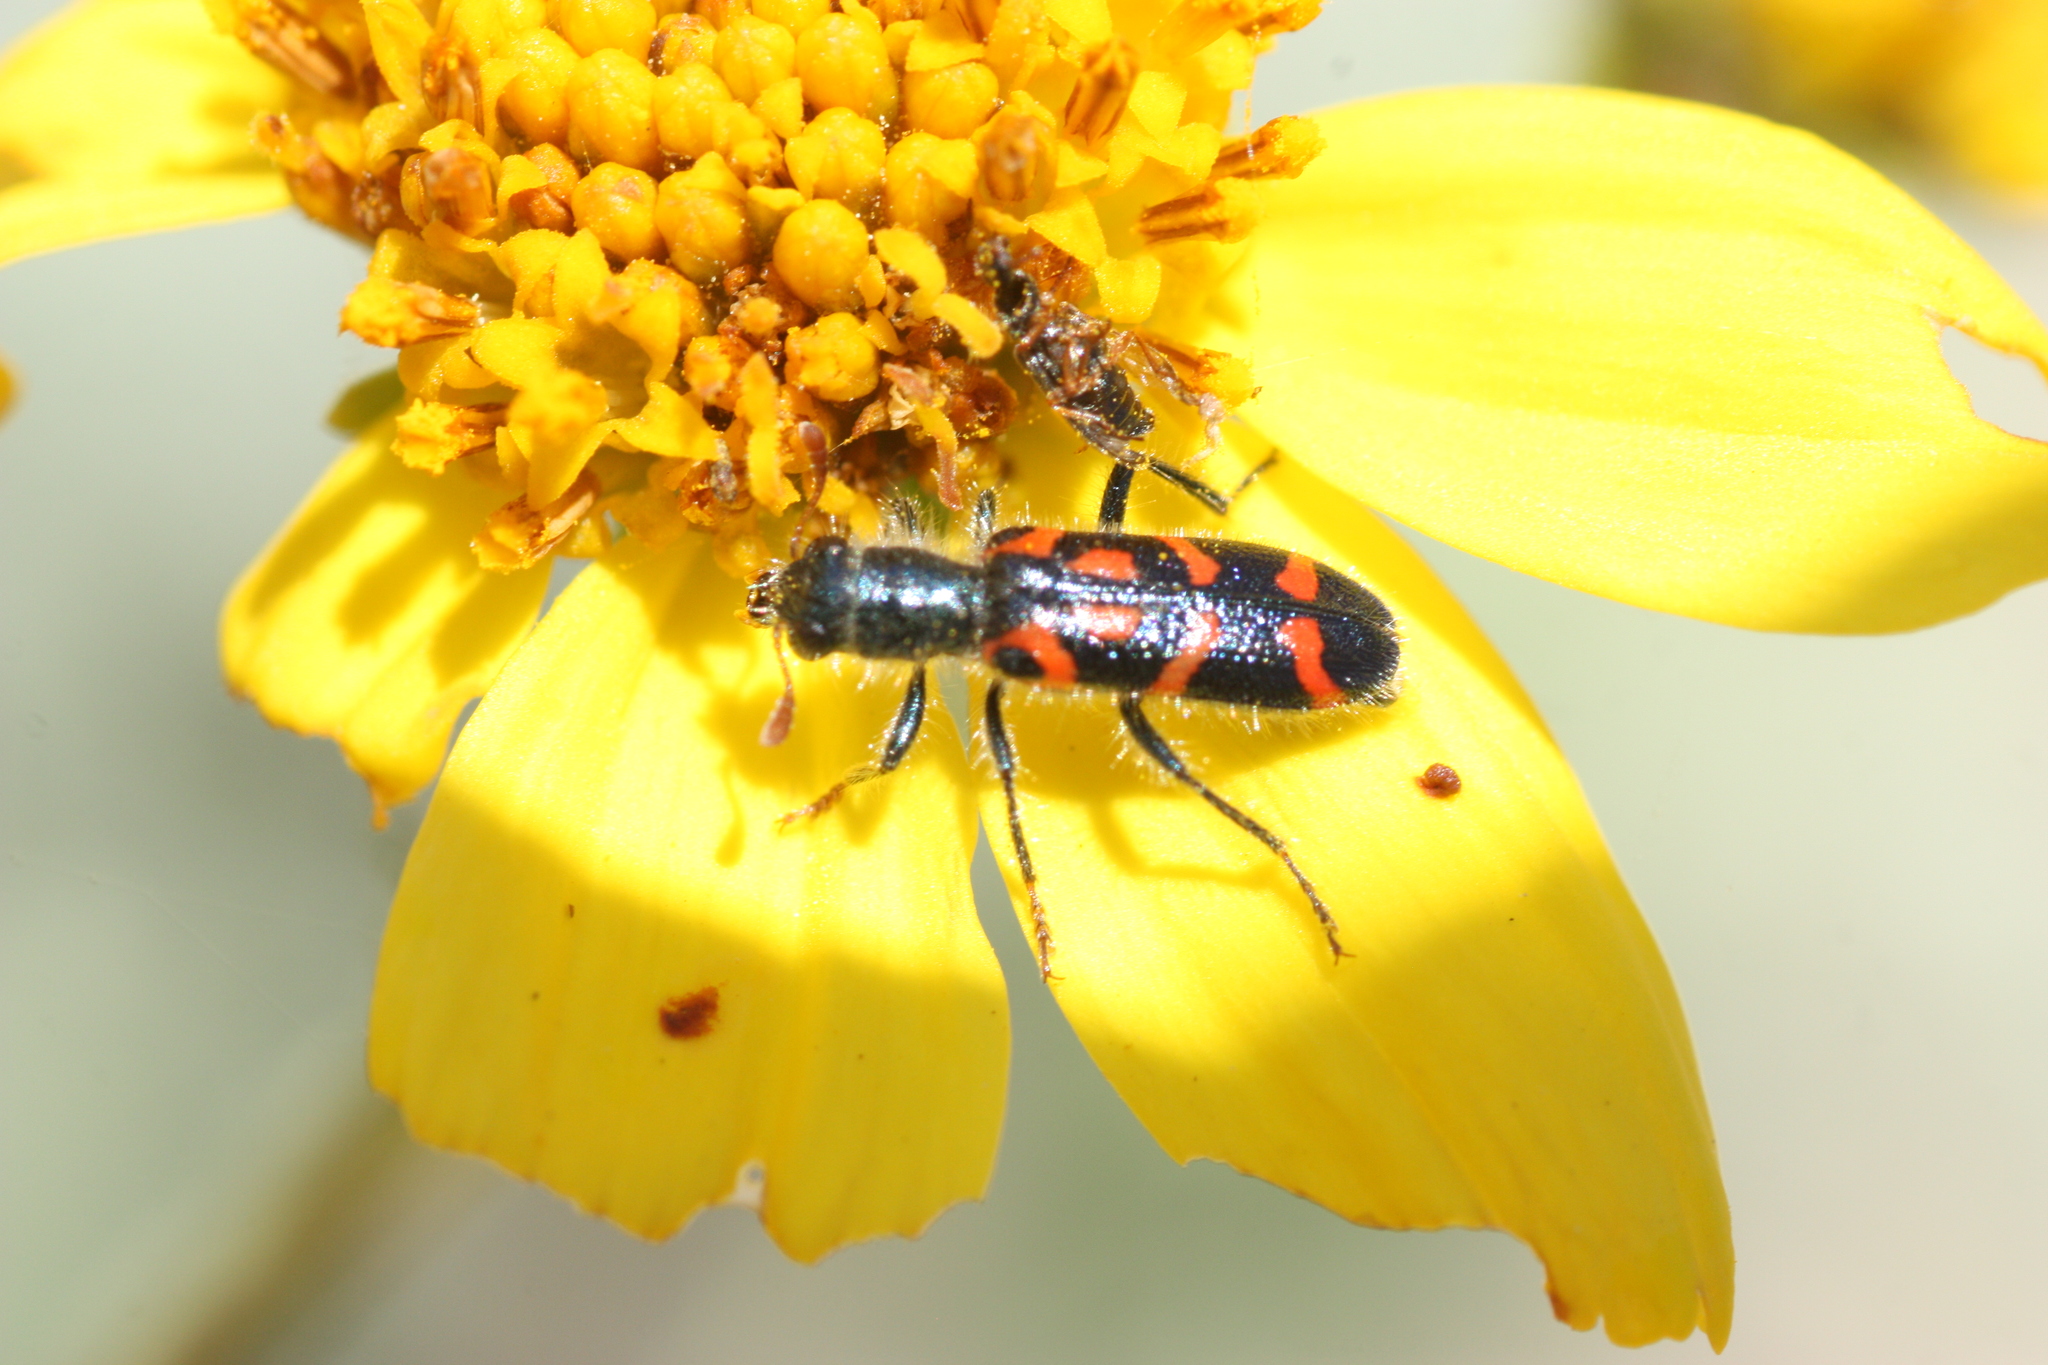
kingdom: Animalia
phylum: Arthropoda
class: Insecta
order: Coleoptera
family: Cleridae
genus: Trichodes
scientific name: Trichodes ornatus
